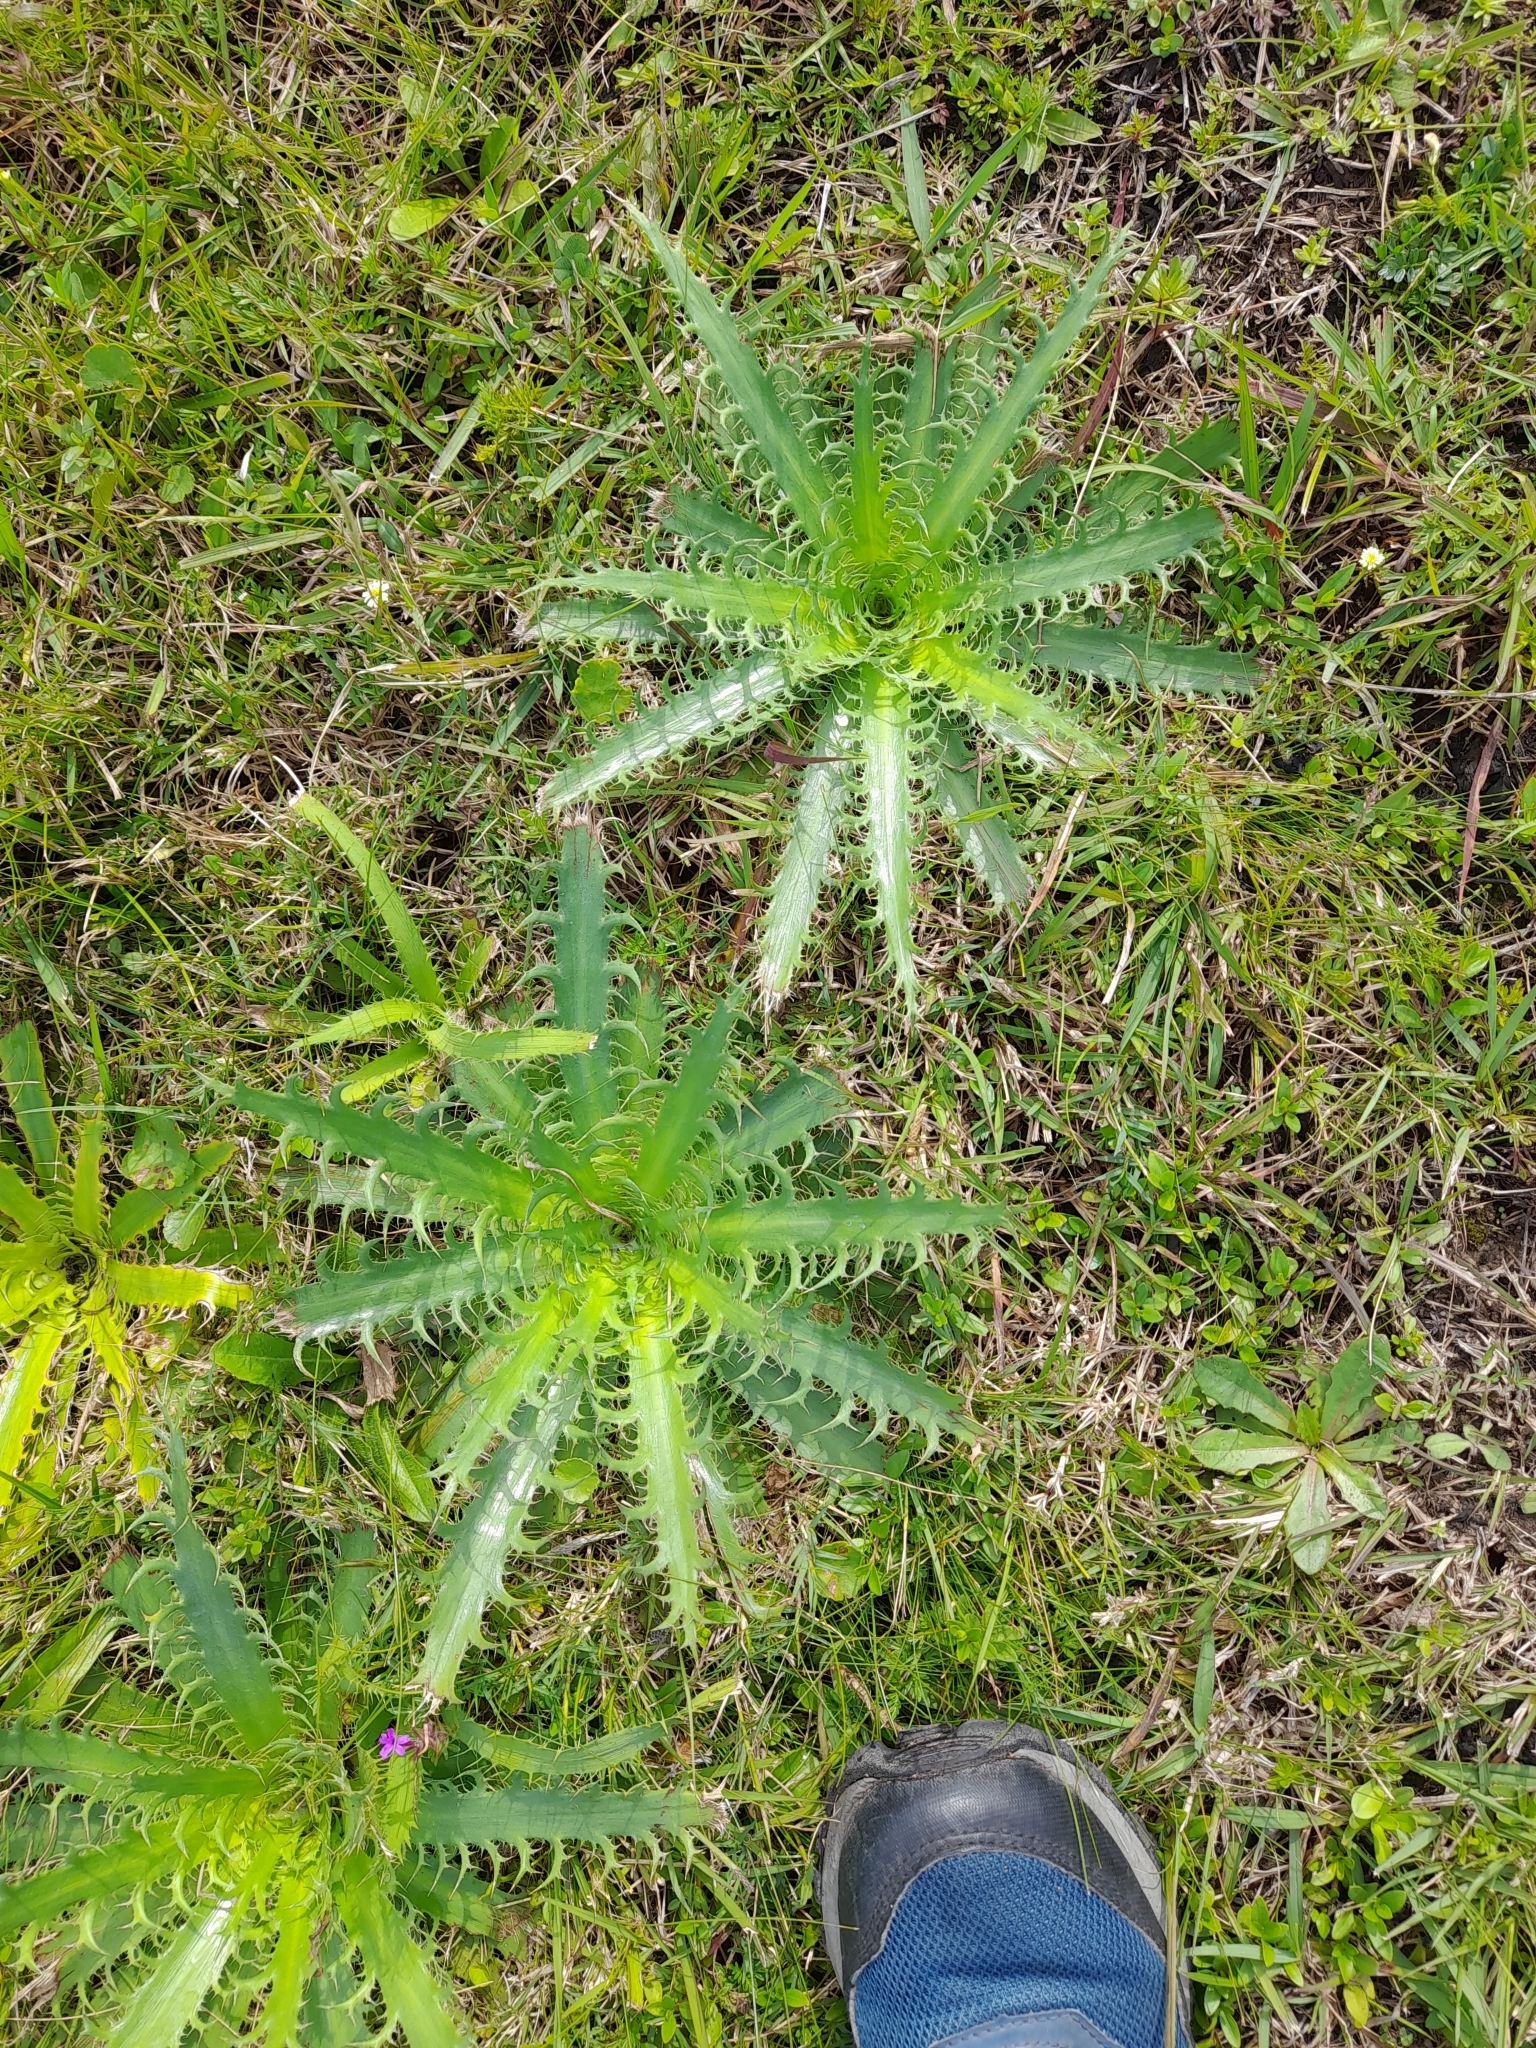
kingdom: Plantae
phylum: Tracheophyta
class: Magnoliopsida
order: Apiales
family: Apiaceae
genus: Eryngium
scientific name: Eryngium serra
